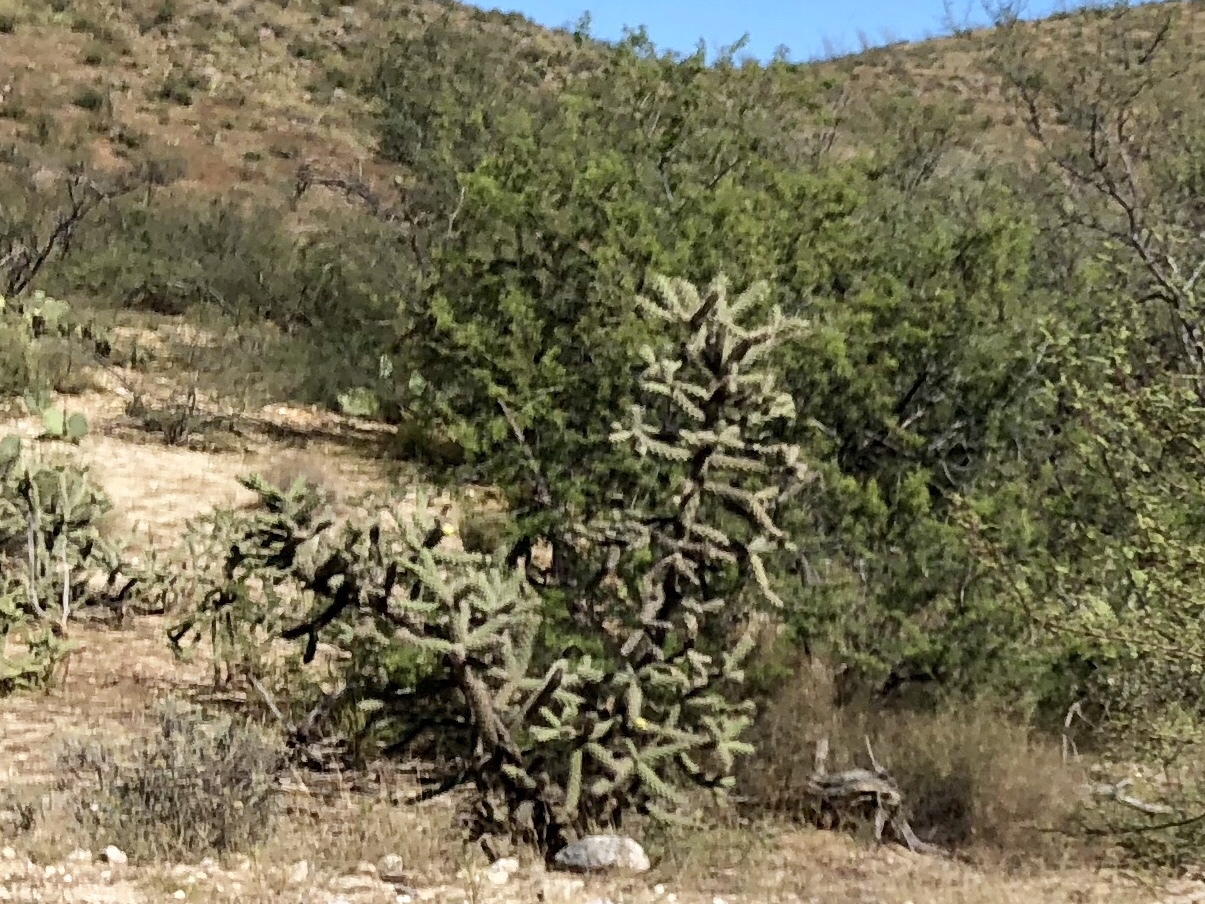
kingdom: Plantae
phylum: Tracheophyta
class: Magnoliopsida
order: Caryophyllales
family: Cactaceae
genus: Cylindropuntia
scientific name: Cylindropuntia imbricata
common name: Candelabrum cactus
